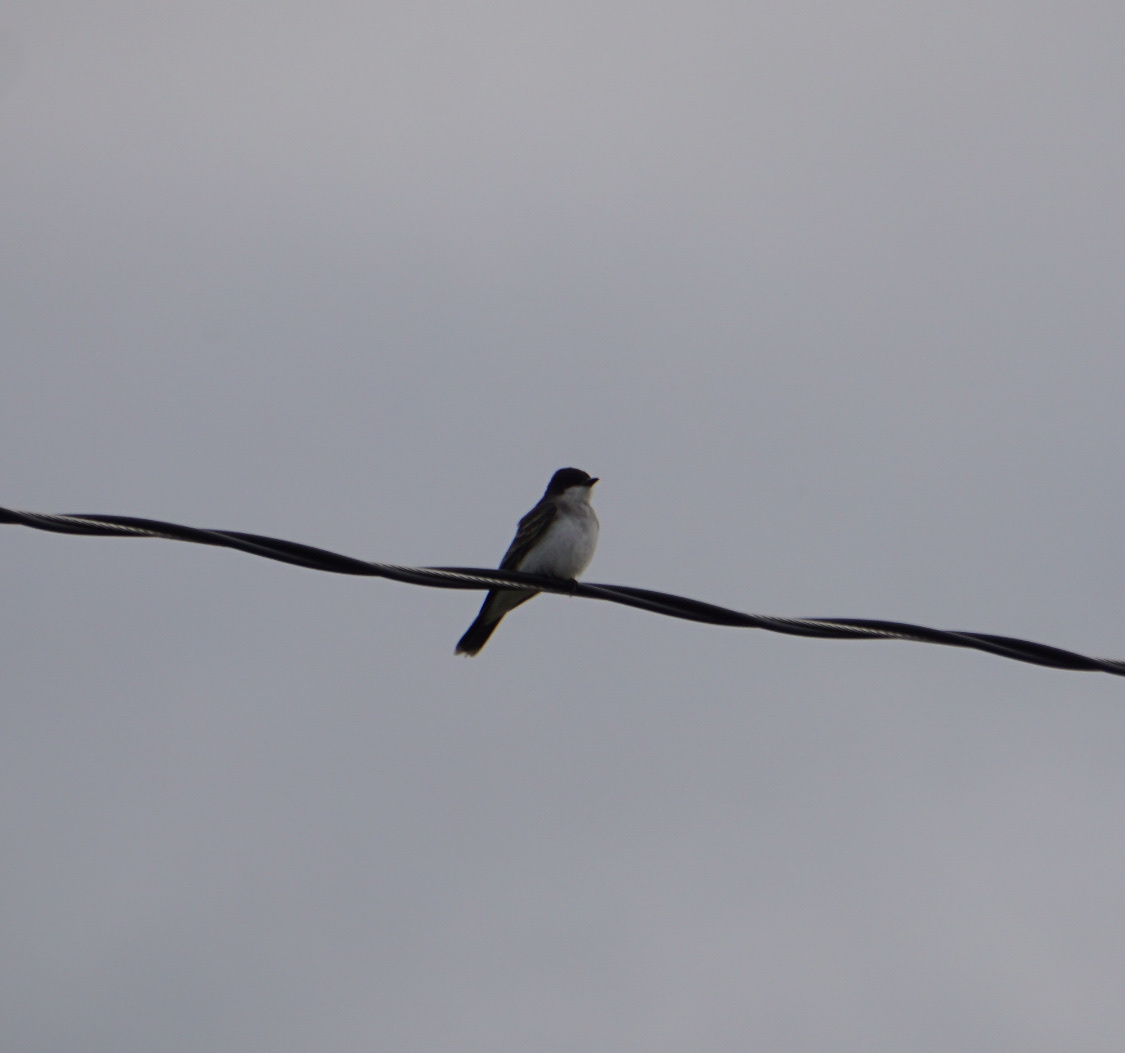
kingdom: Animalia
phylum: Chordata
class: Aves
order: Passeriformes
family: Tyrannidae
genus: Tyrannus
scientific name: Tyrannus tyrannus
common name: Eastern kingbird
